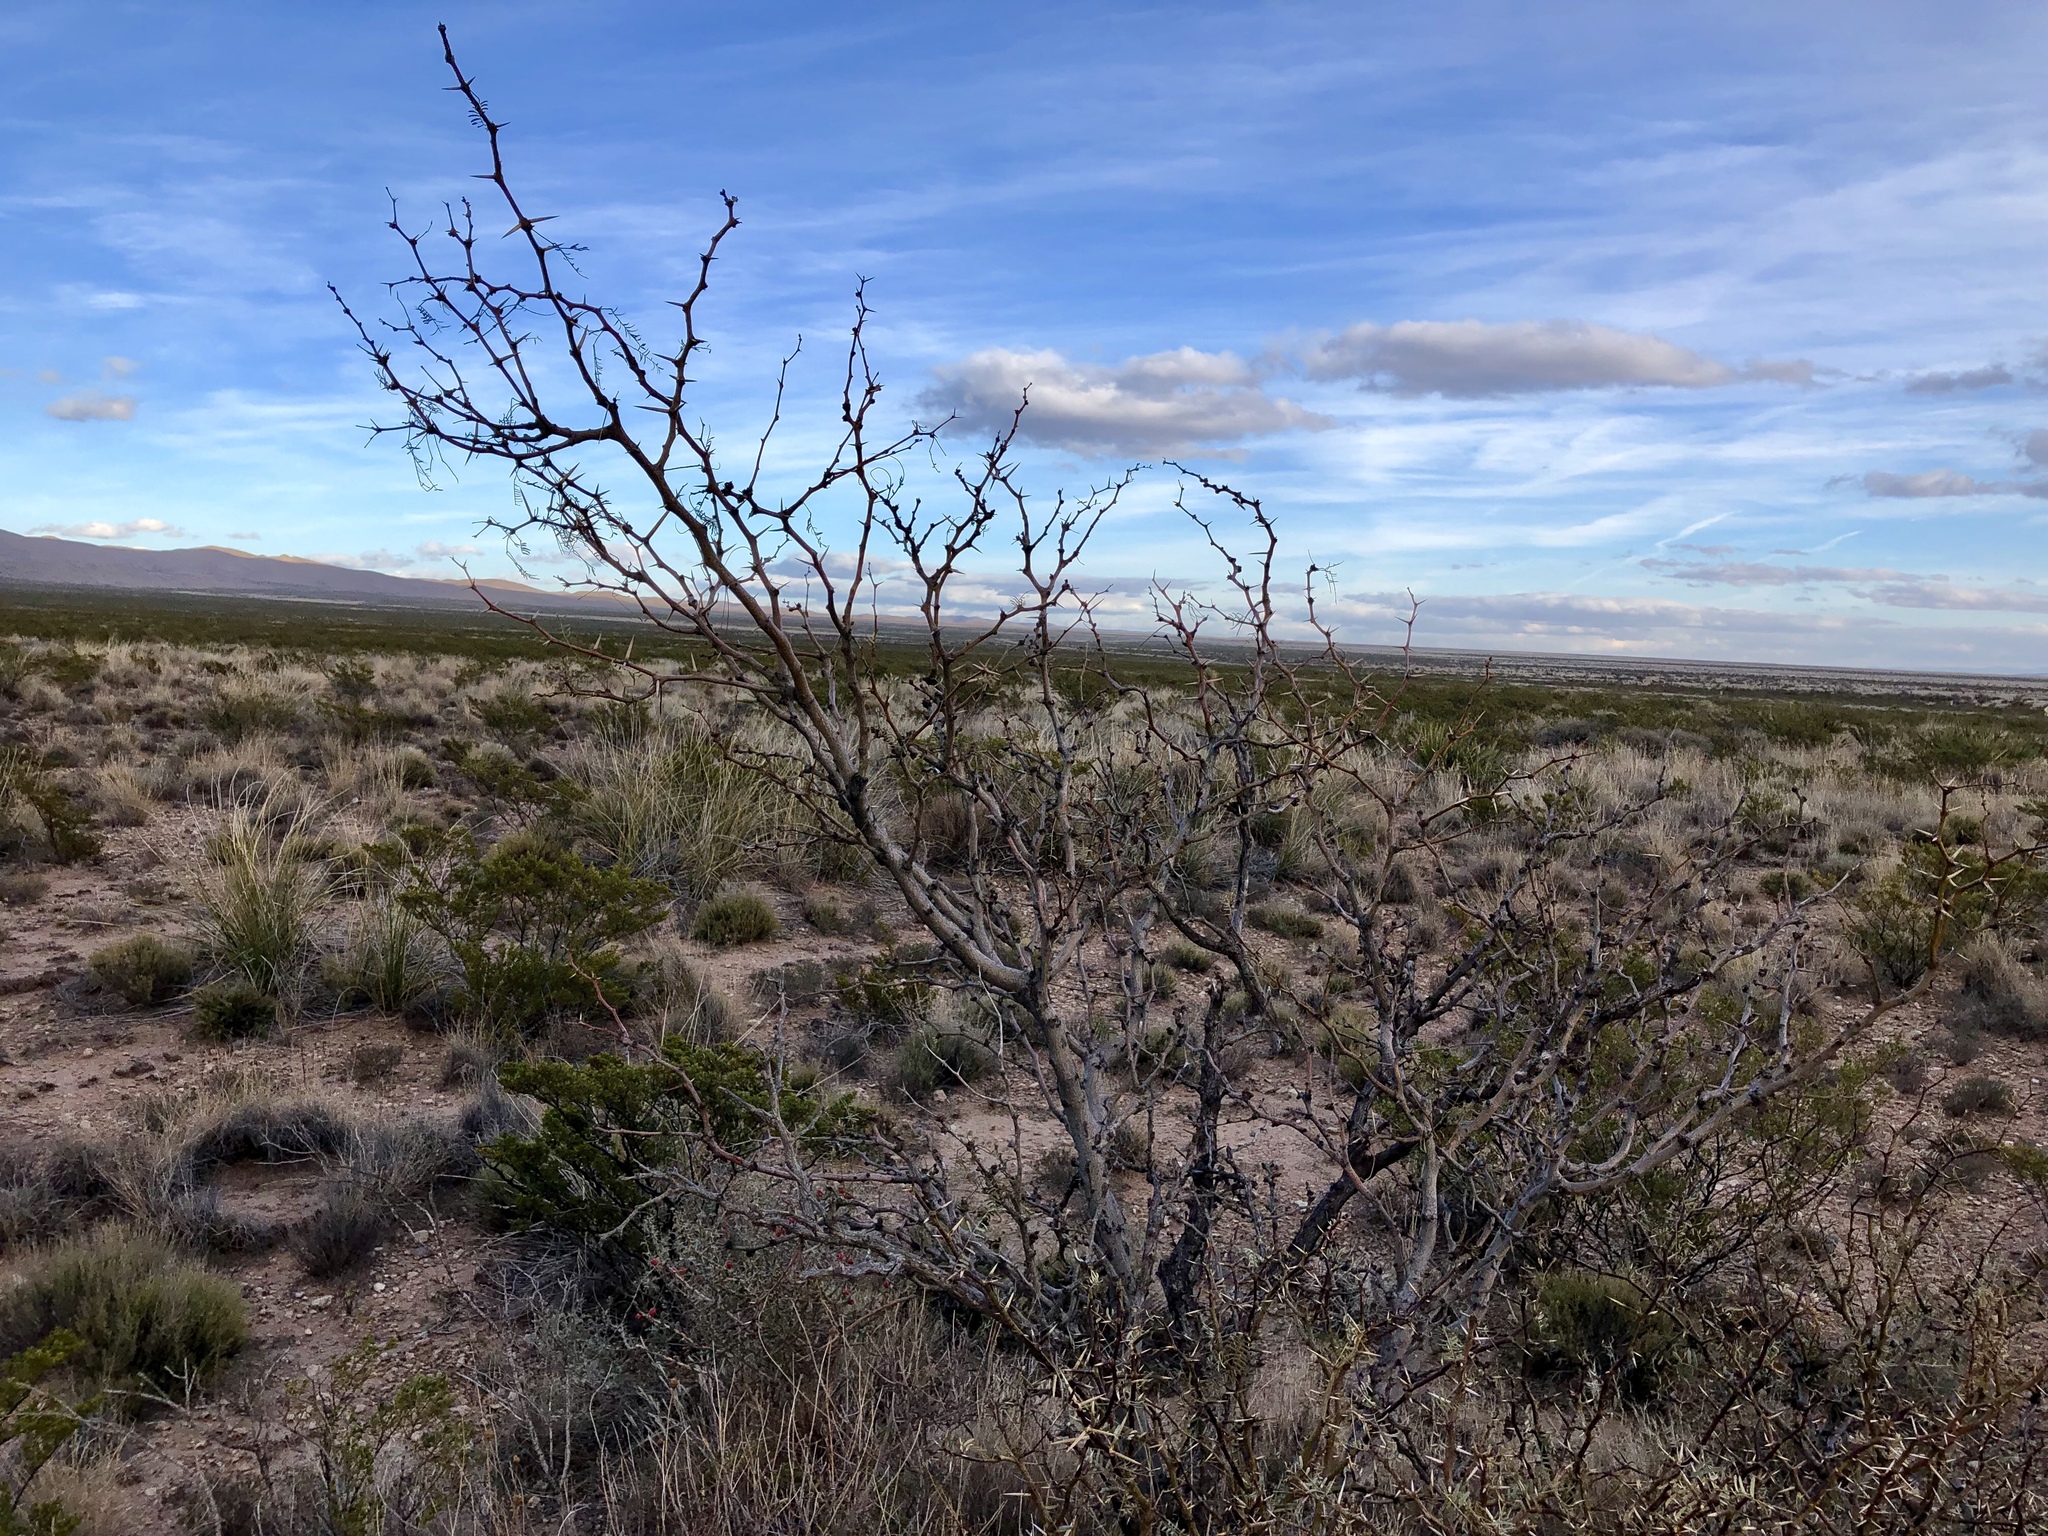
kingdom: Plantae
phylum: Tracheophyta
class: Magnoliopsida
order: Fabales
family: Fabaceae
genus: Prosopis
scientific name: Prosopis glandulosa
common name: Honey mesquite
